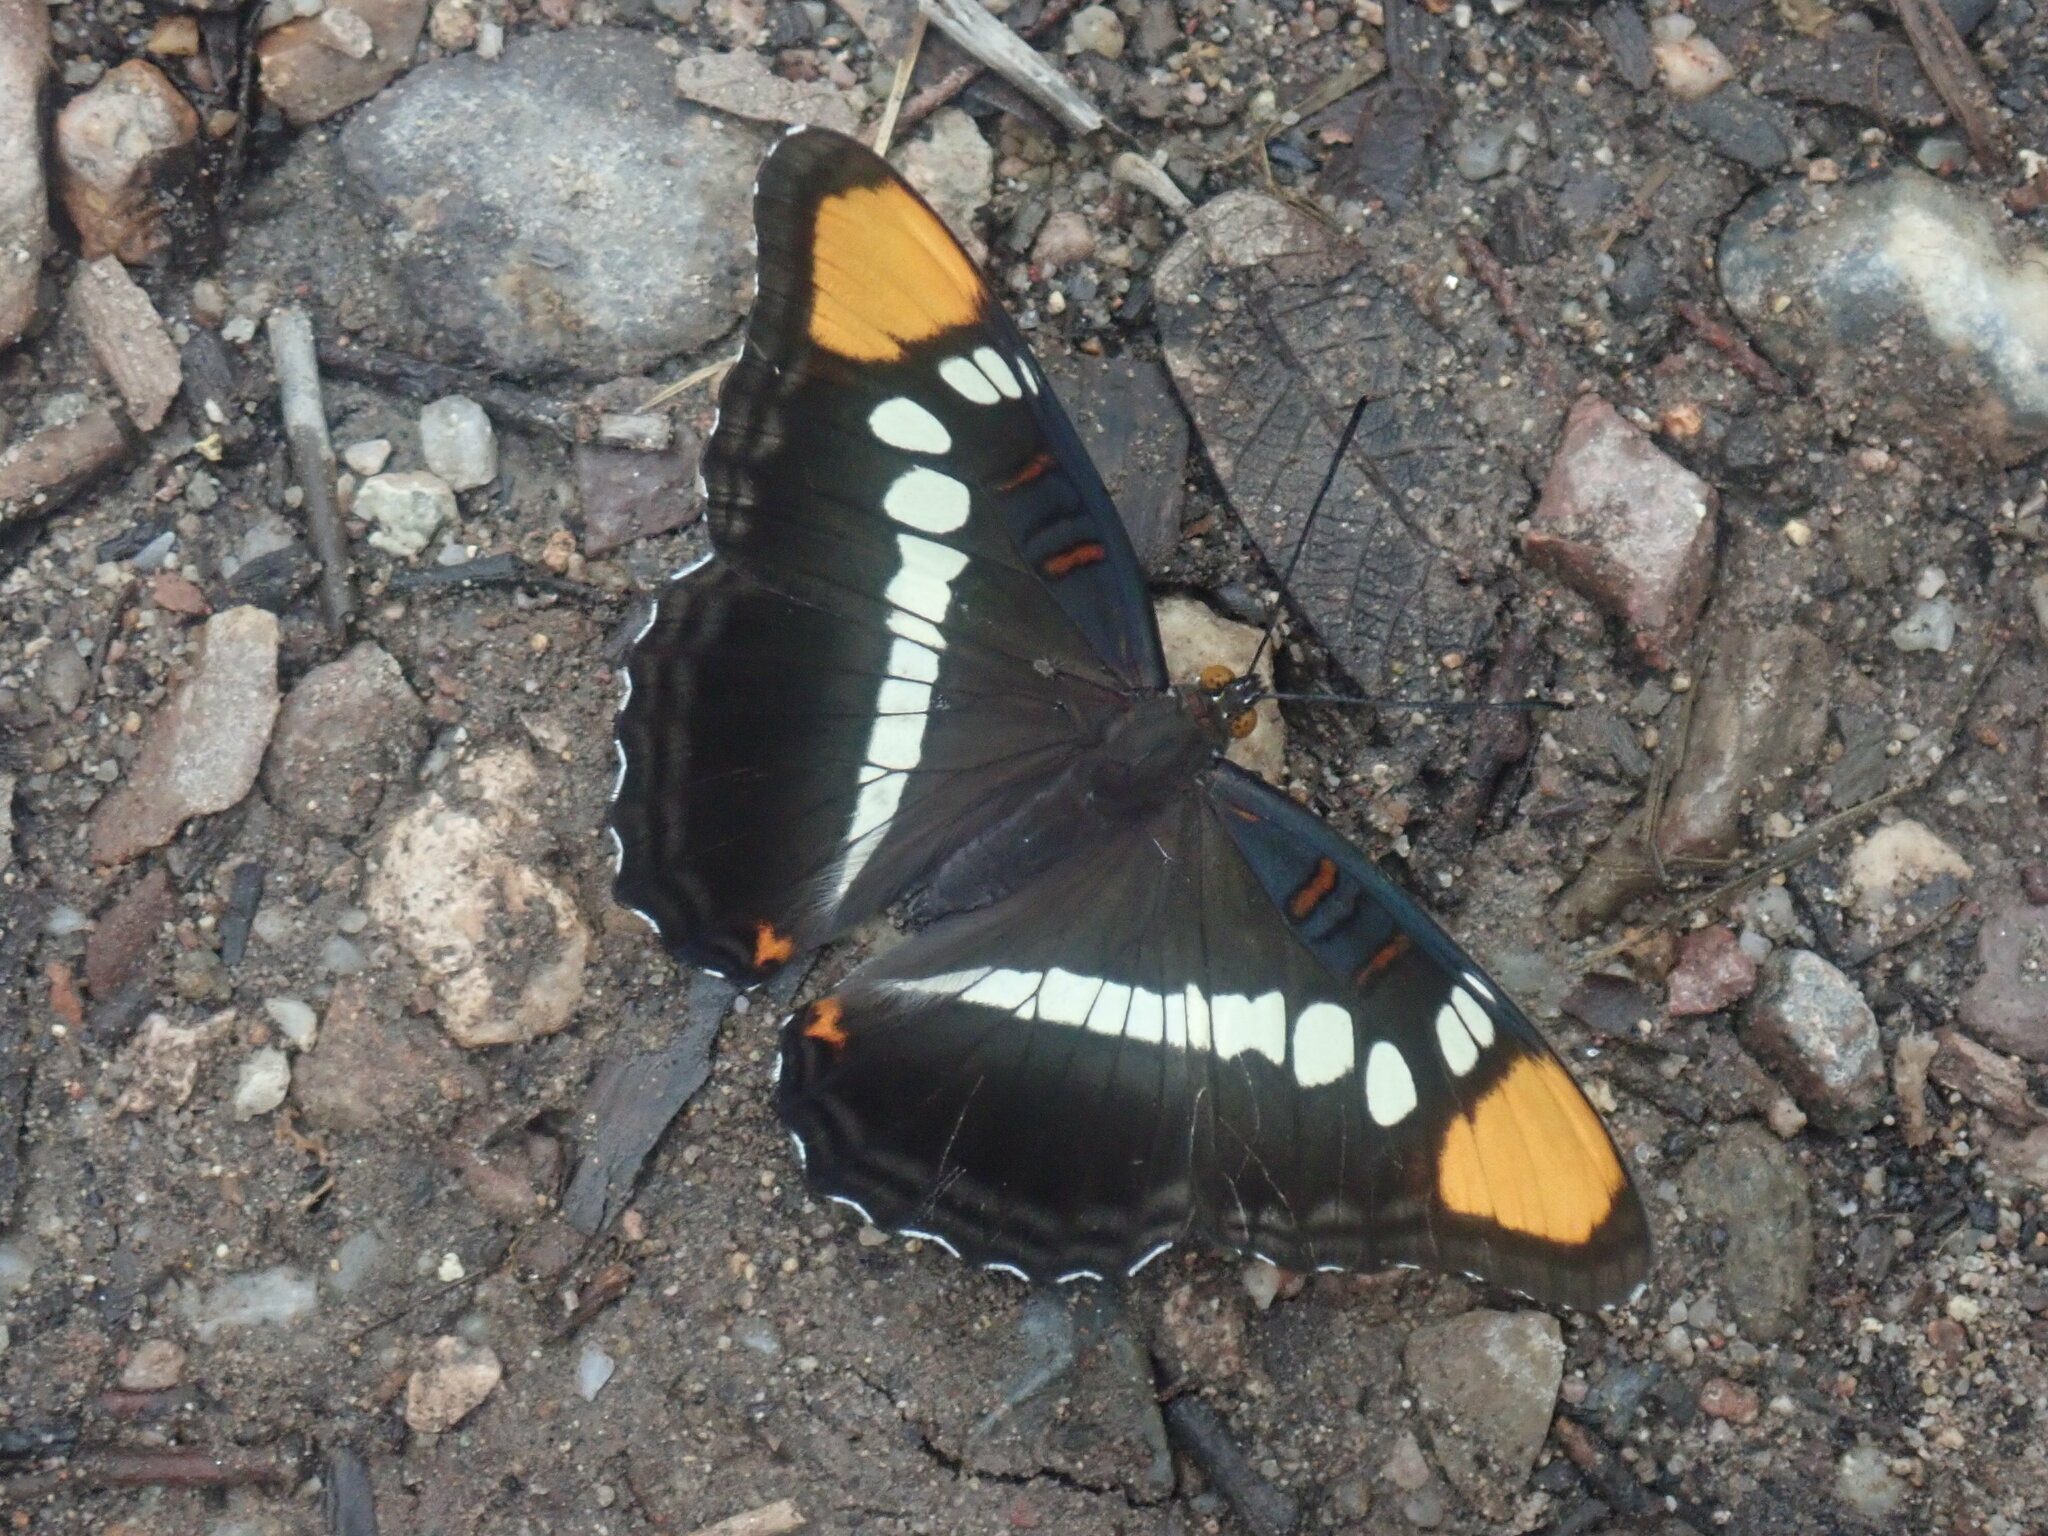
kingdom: Animalia
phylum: Arthropoda
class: Insecta
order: Lepidoptera
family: Nymphalidae
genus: Limenitis
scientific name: Limenitis bredowii
